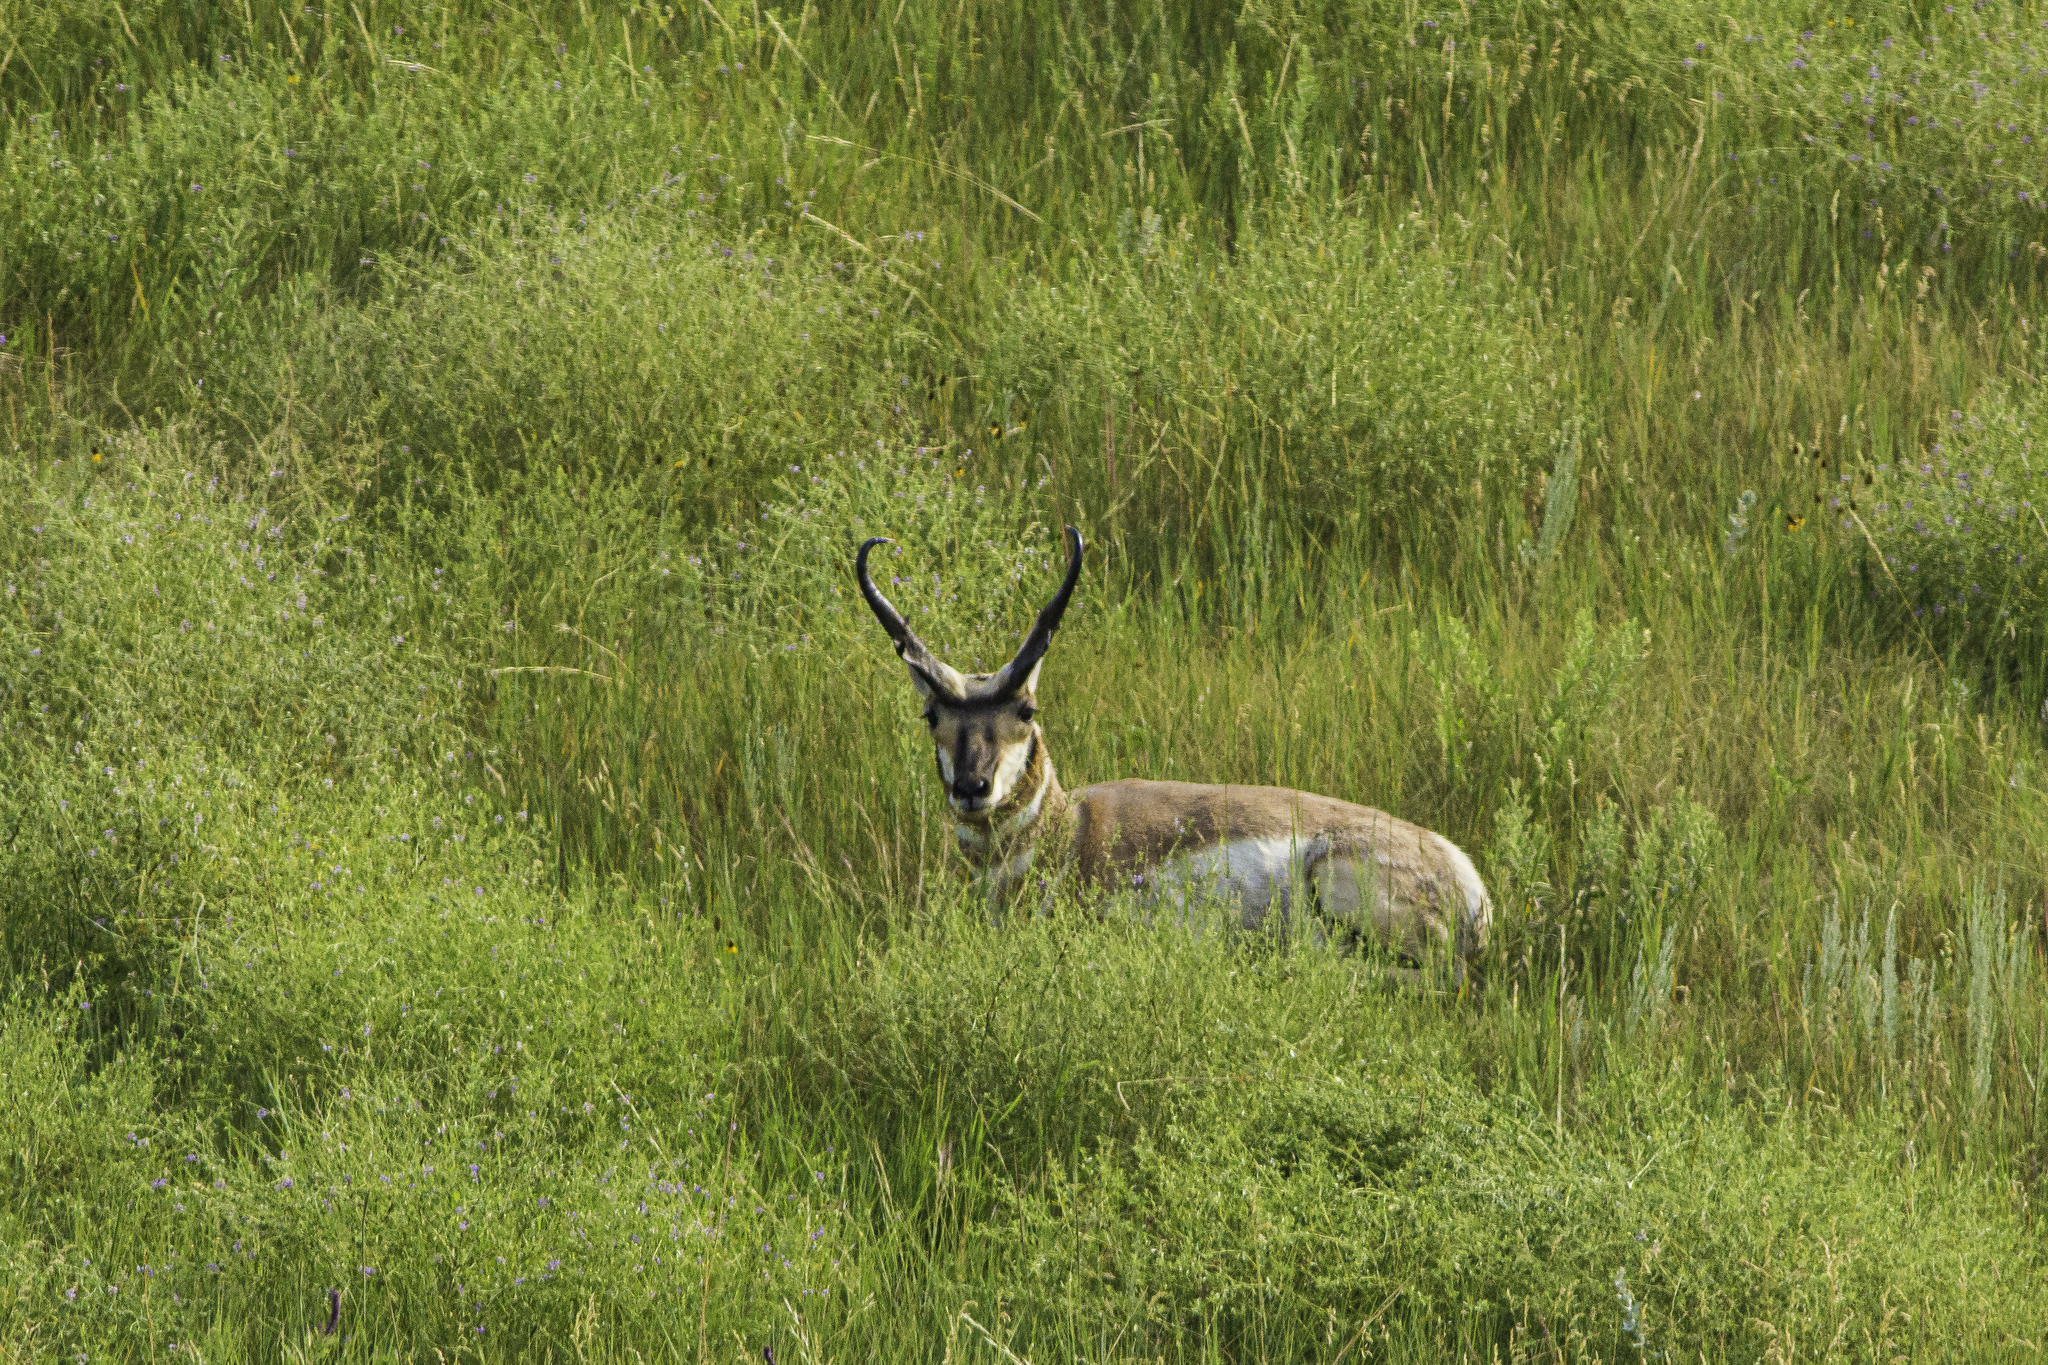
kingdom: Animalia
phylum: Chordata
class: Mammalia
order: Artiodactyla
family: Antilocapridae
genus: Antilocapra
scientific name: Antilocapra americana
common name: Pronghorn
